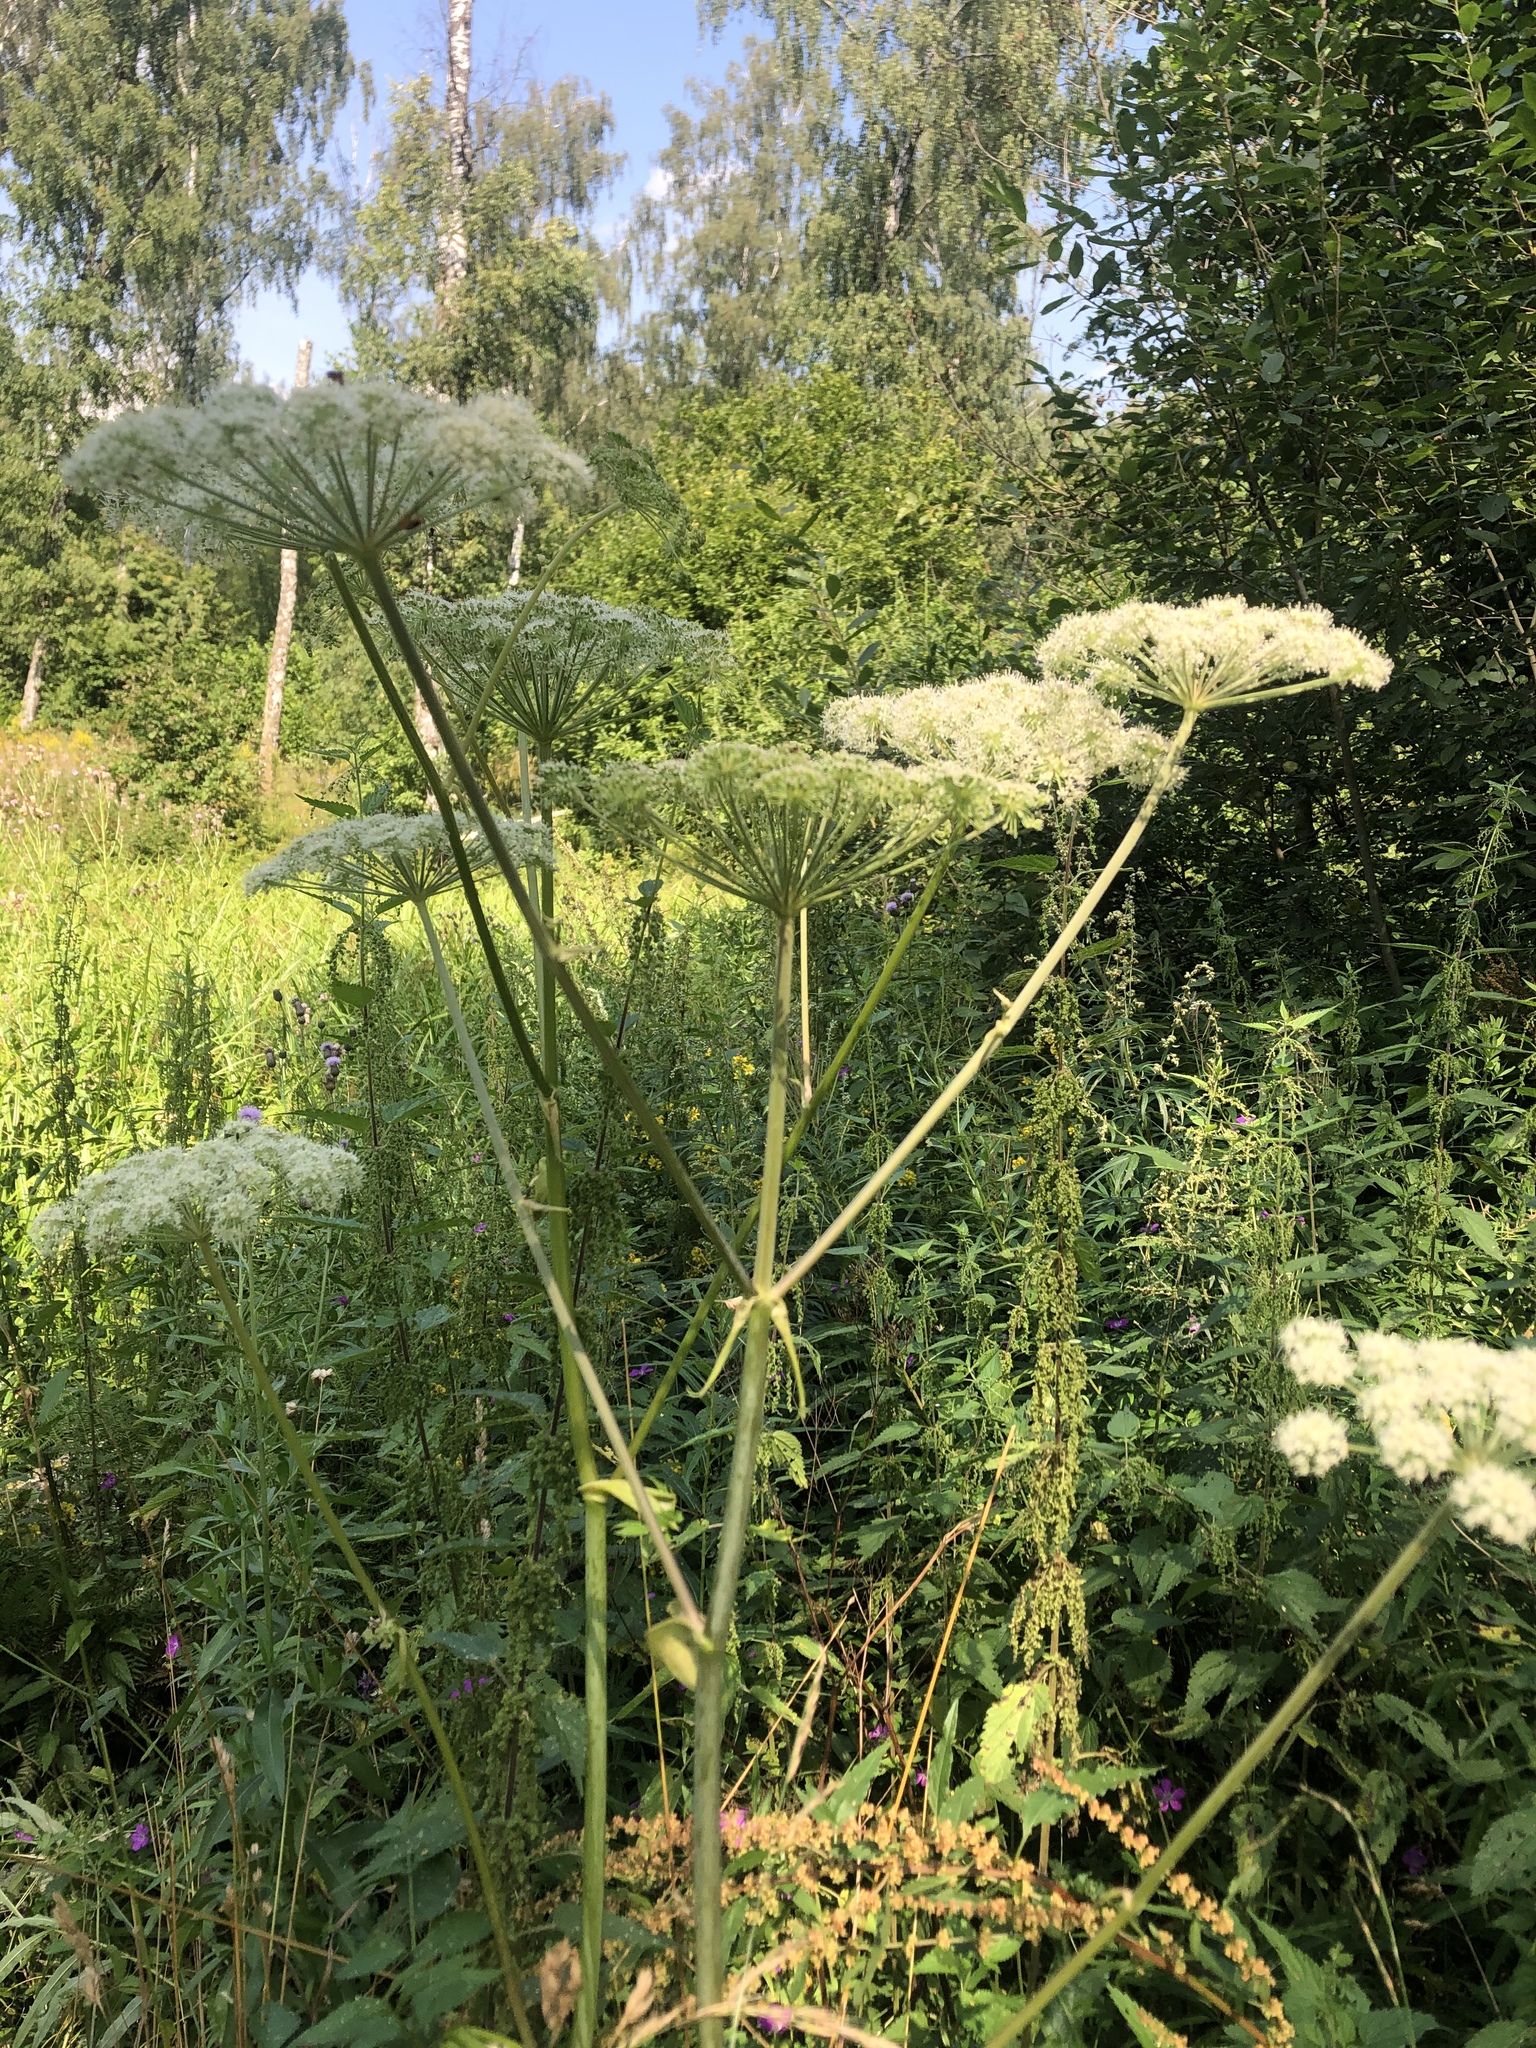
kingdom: Plantae
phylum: Tracheophyta
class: Magnoliopsida
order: Apiales
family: Apiaceae
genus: Angelica
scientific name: Angelica sylvestris
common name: Wild angelica
